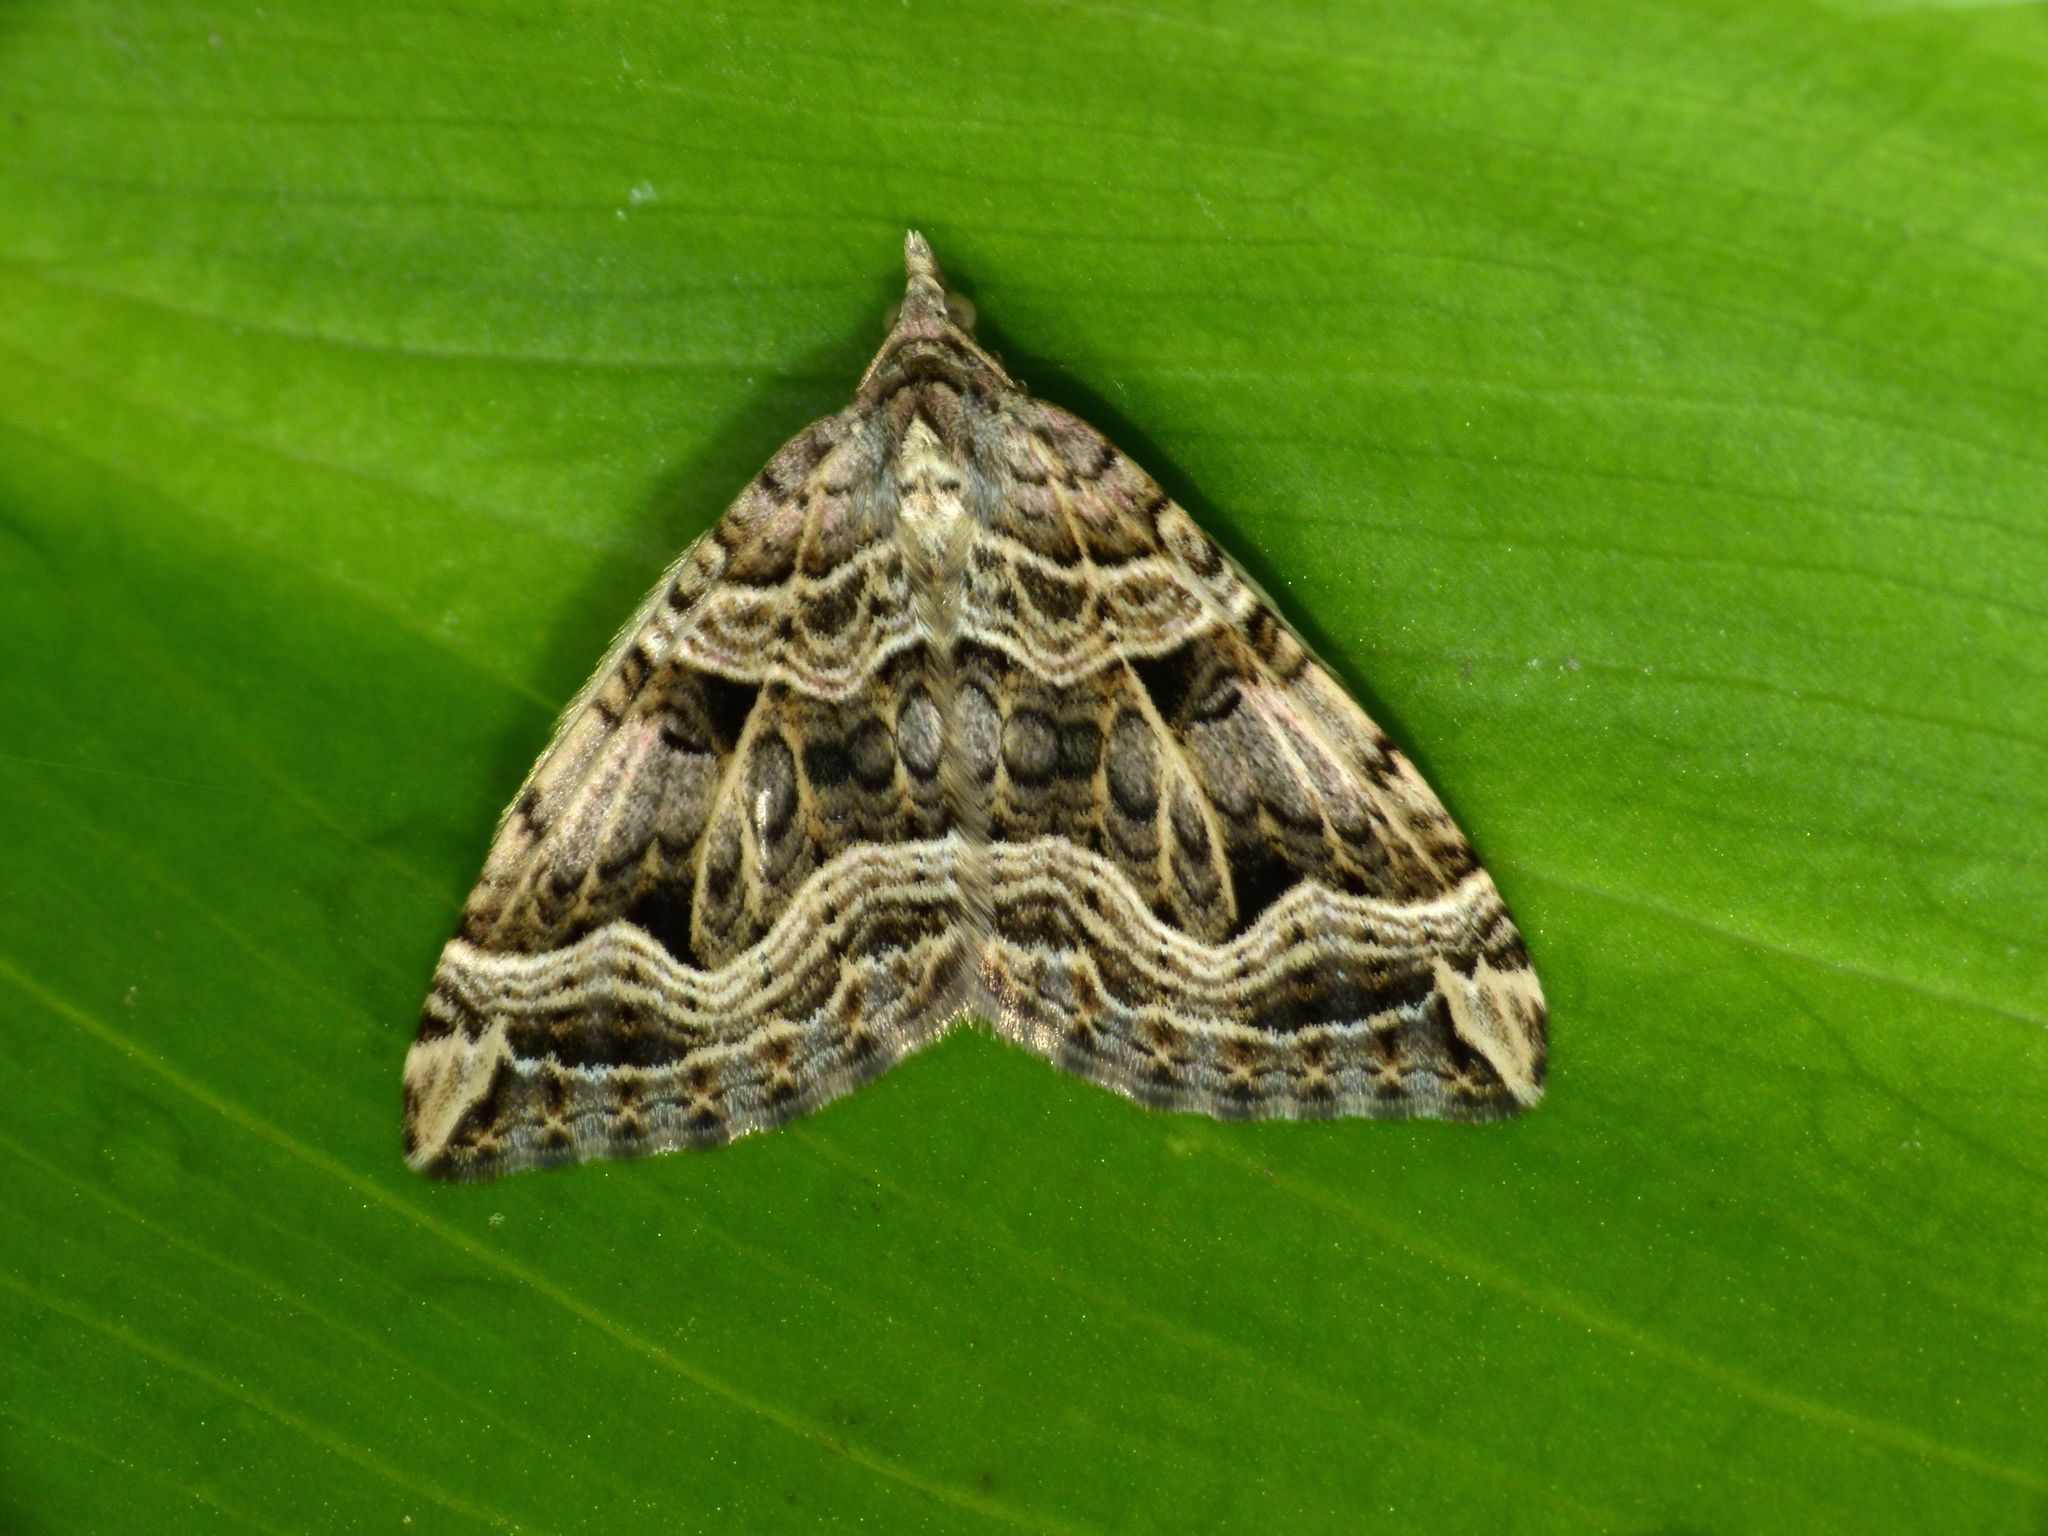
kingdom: Animalia
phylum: Arthropoda
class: Insecta
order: Lepidoptera
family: Geometridae
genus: Xanthorhoe
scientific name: Xanthorhoe semifissata
